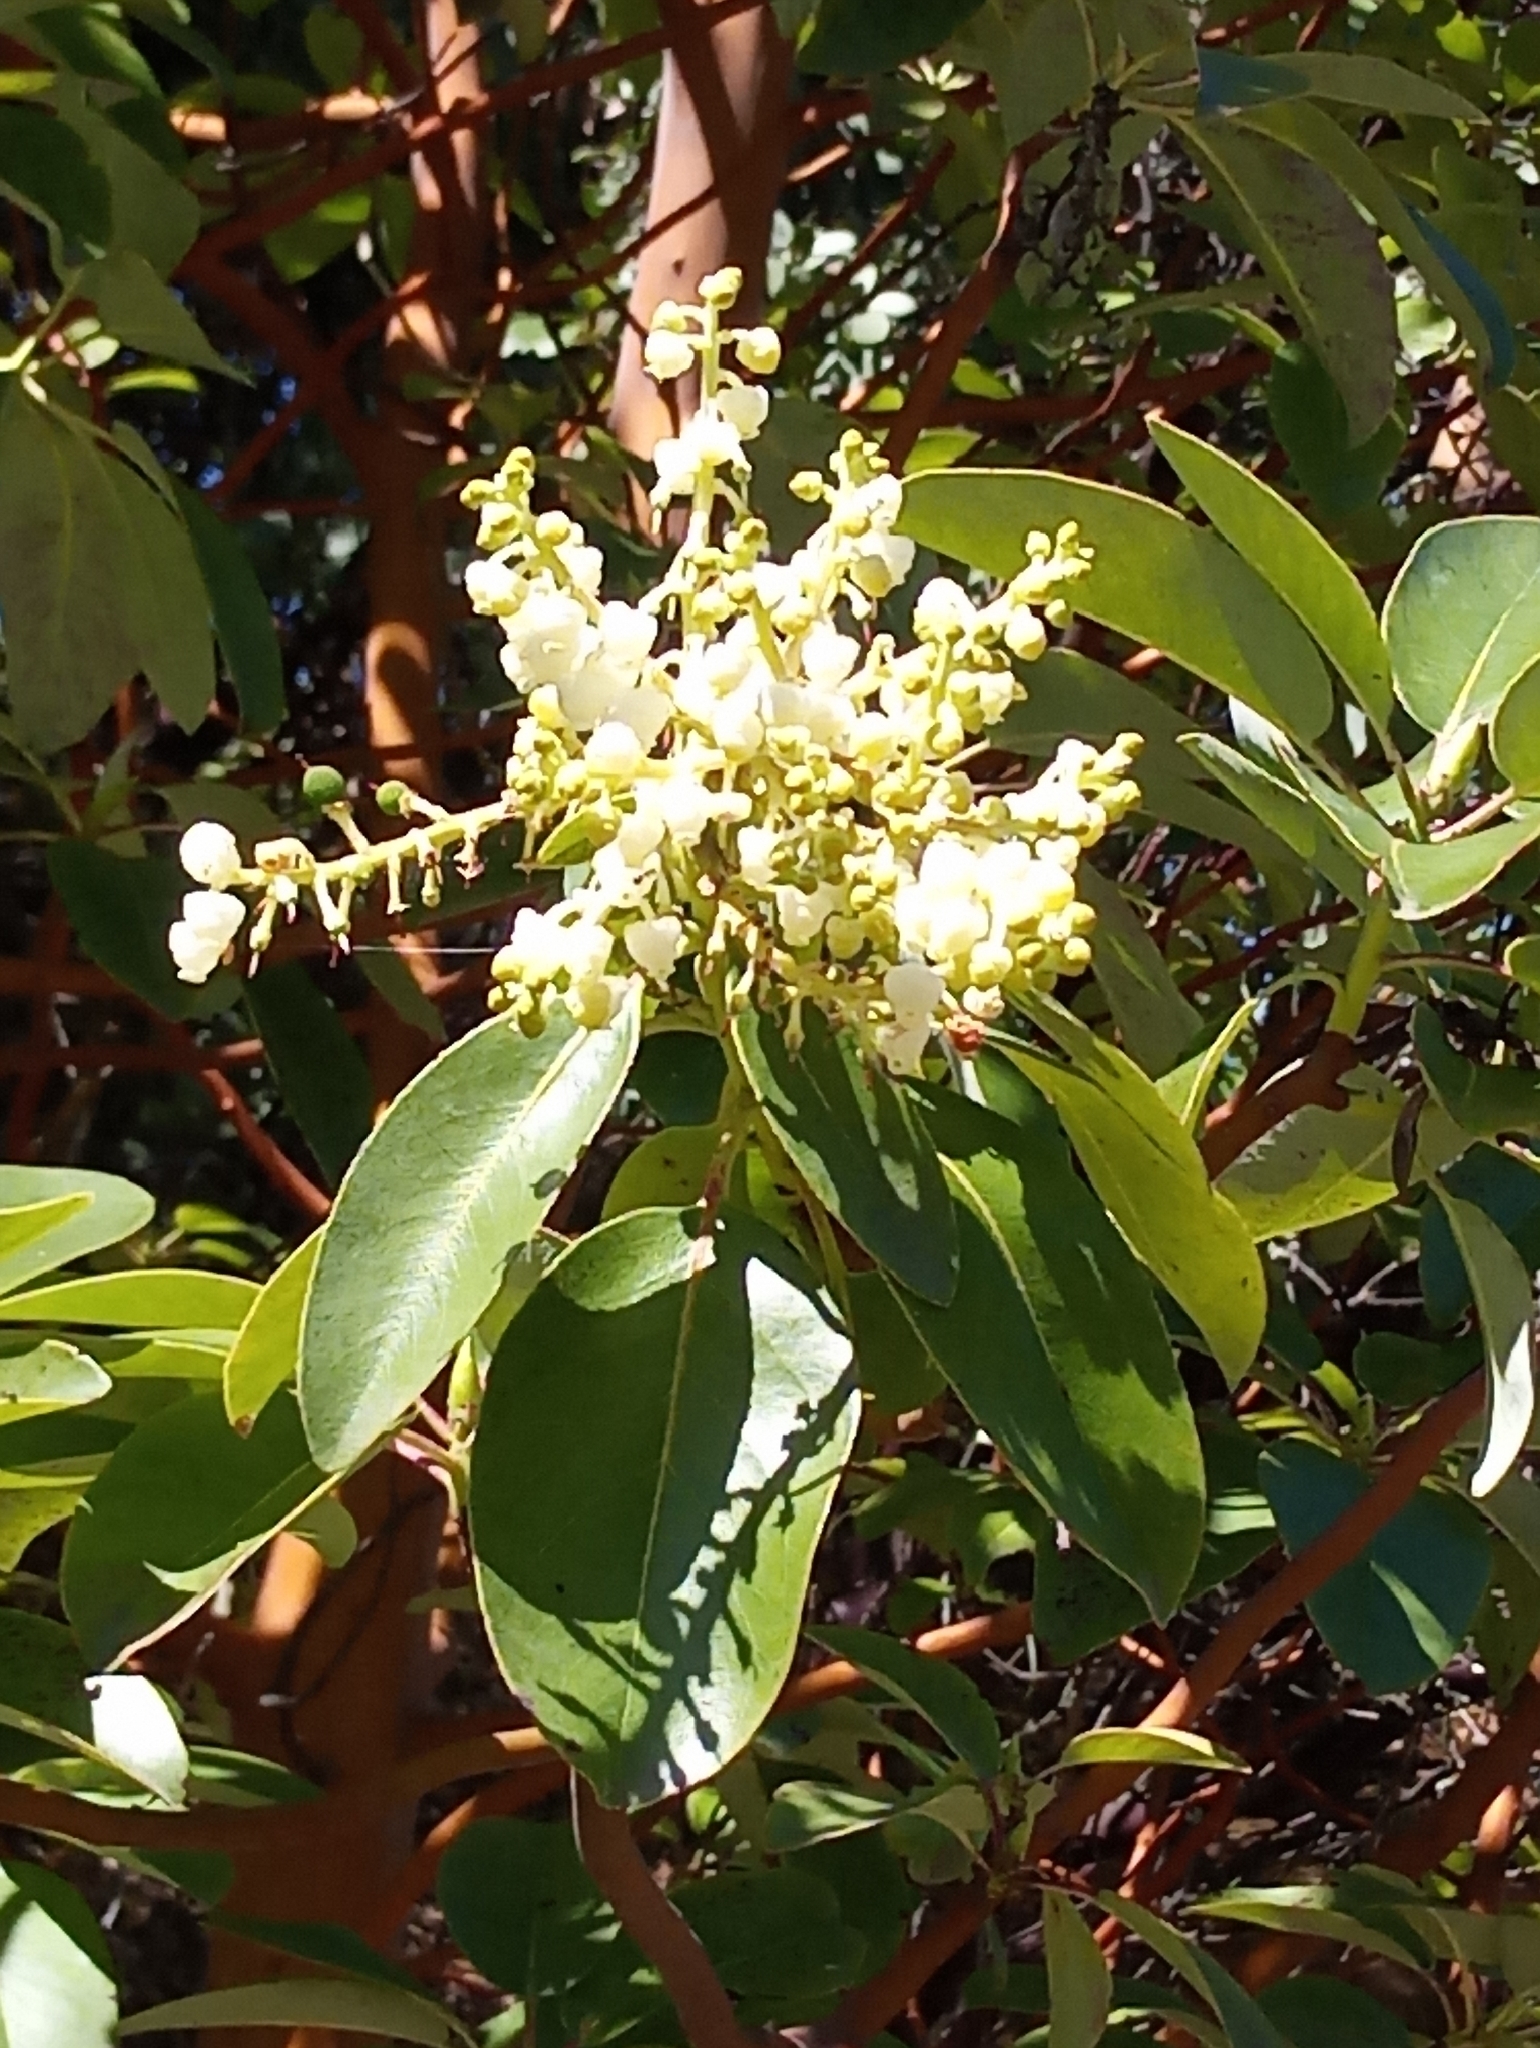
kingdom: Plantae
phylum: Tracheophyta
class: Magnoliopsida
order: Ericales
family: Ericaceae
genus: Arbutus
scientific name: Arbutus menziesii
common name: Pacific madrone
